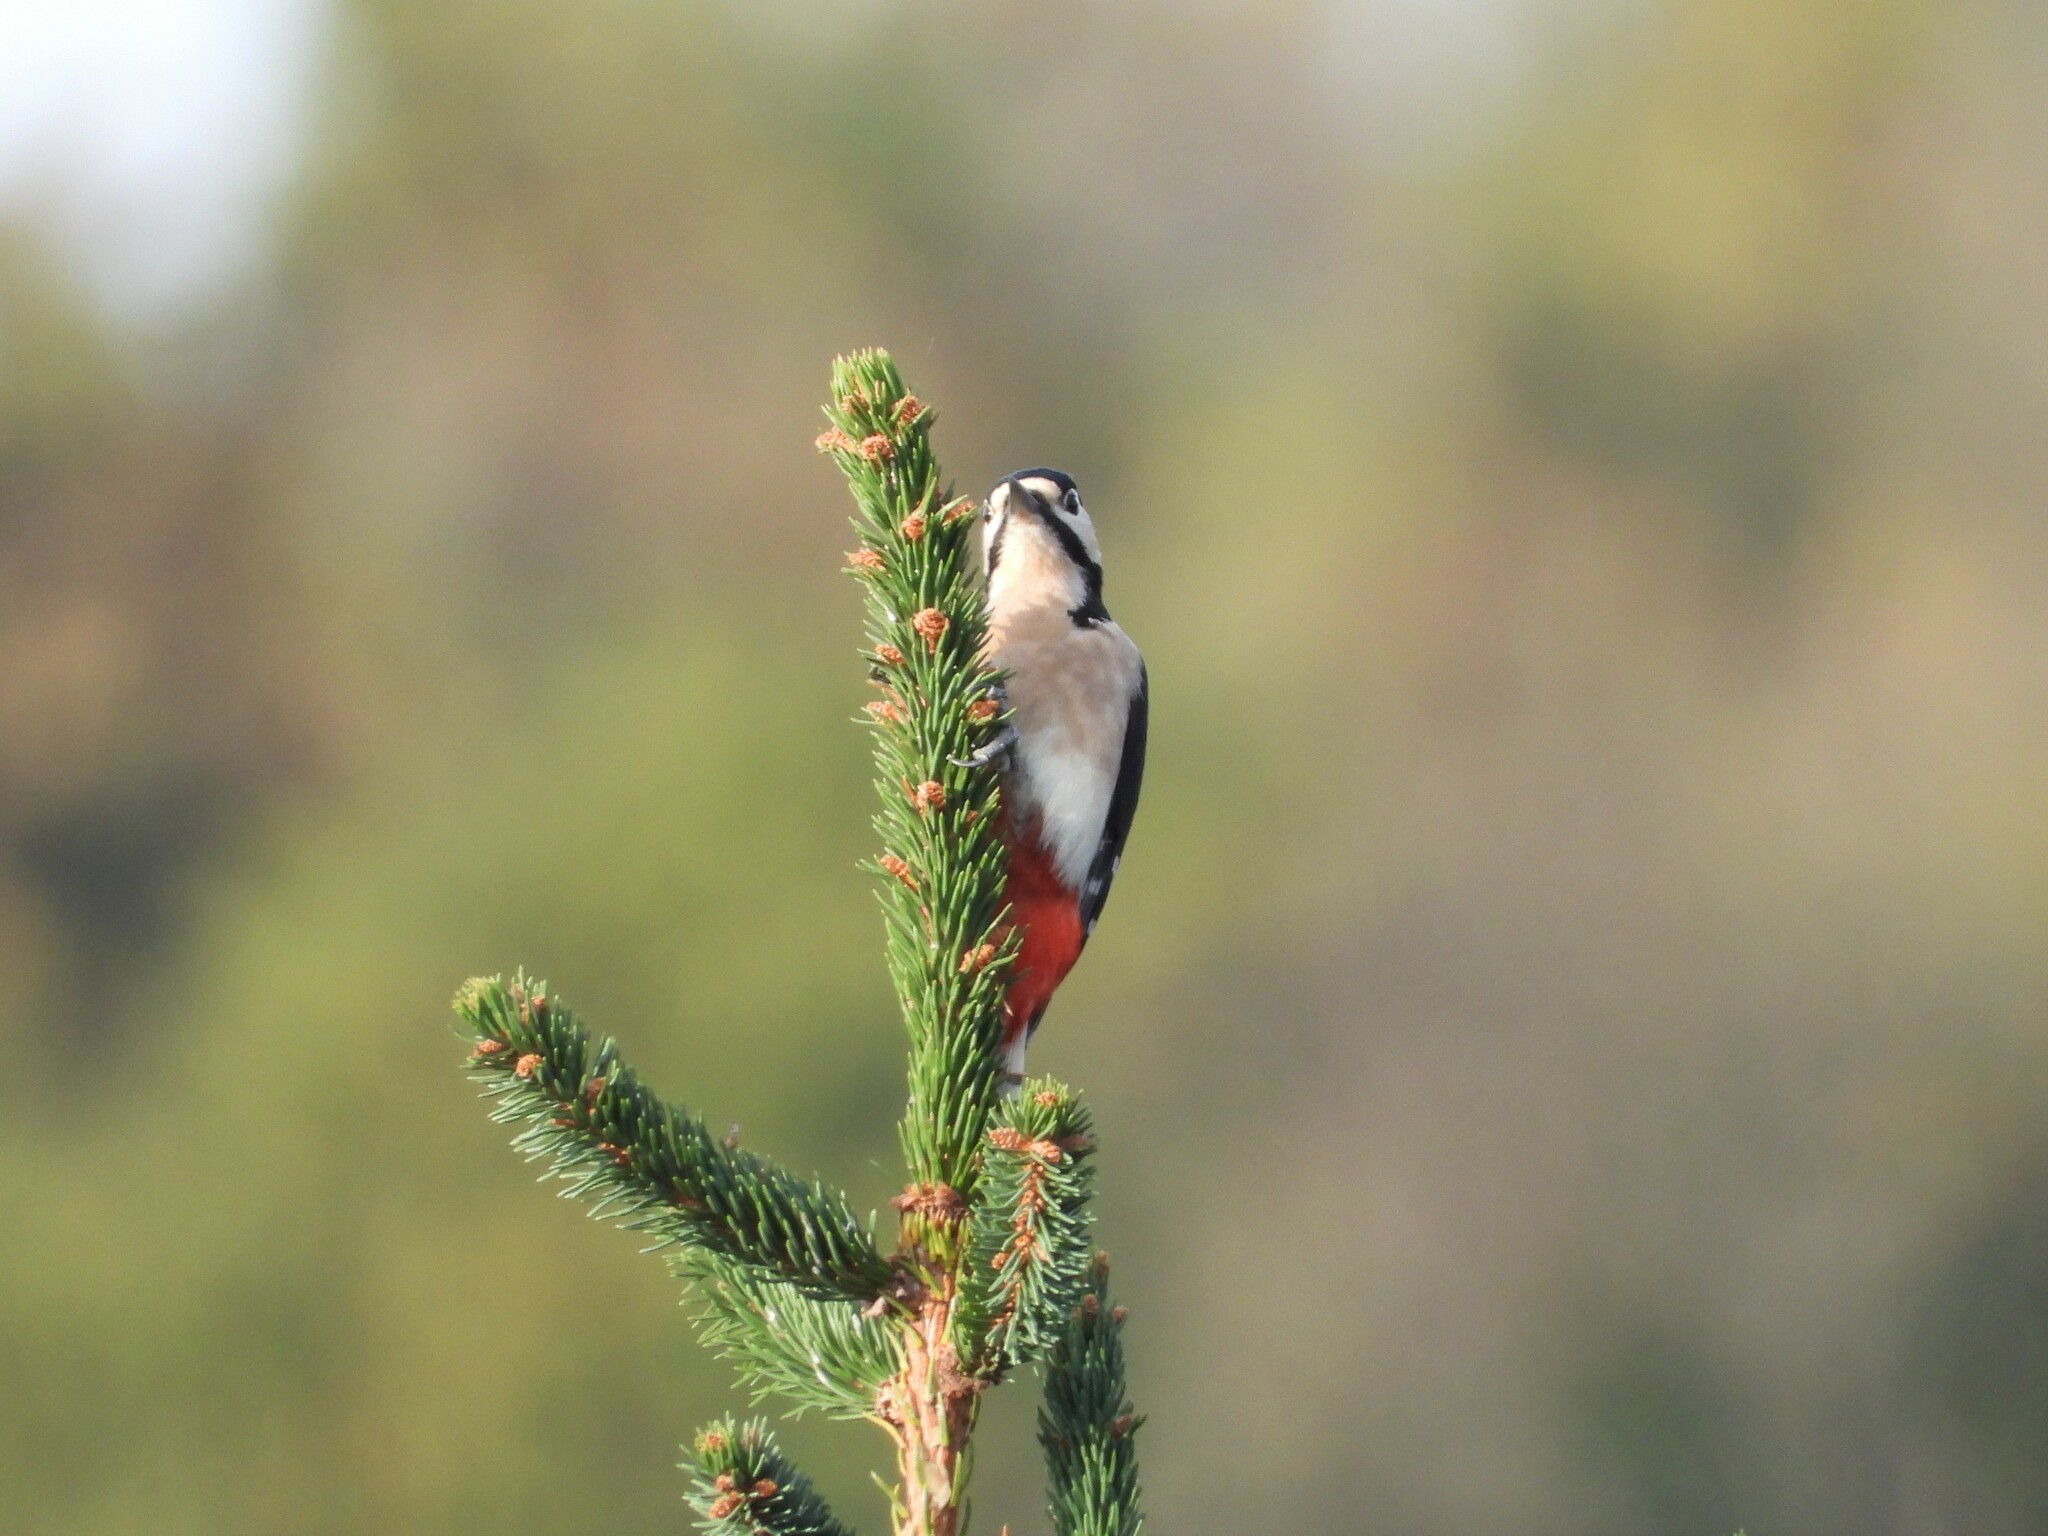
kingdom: Animalia
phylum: Chordata
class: Aves
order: Piciformes
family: Picidae
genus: Dendrocopos
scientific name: Dendrocopos major
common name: Great spotted woodpecker
